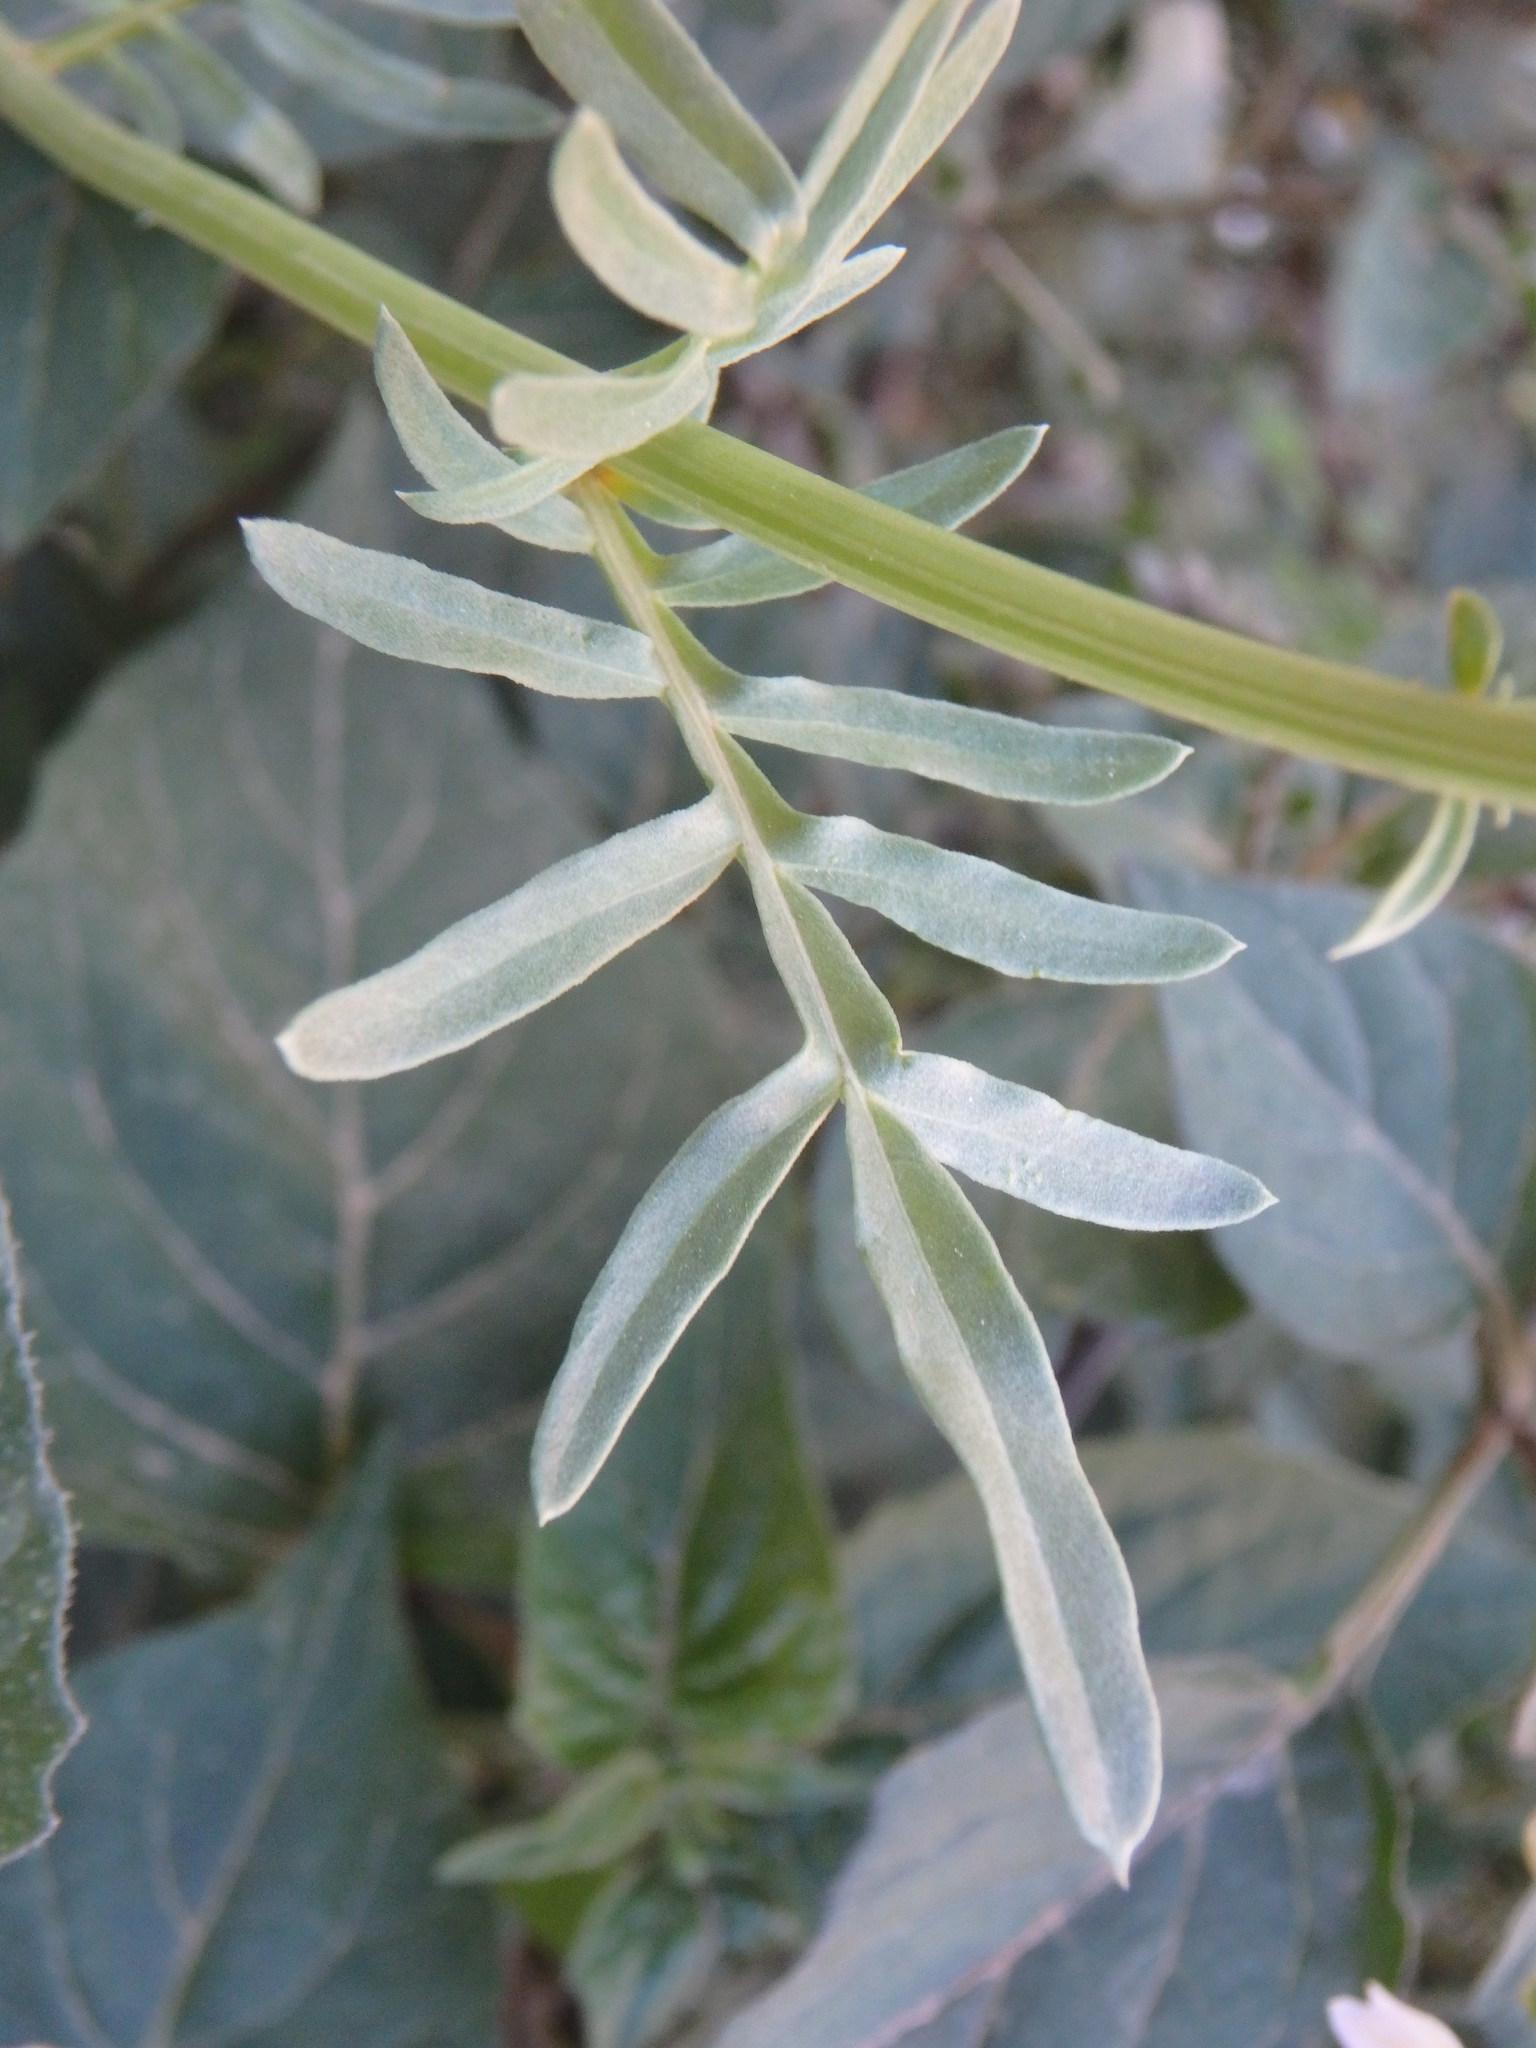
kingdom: Plantae
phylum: Tracheophyta
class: Magnoliopsida
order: Brassicales
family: Resedaceae
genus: Reseda
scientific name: Reseda alba
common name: White mignonette
